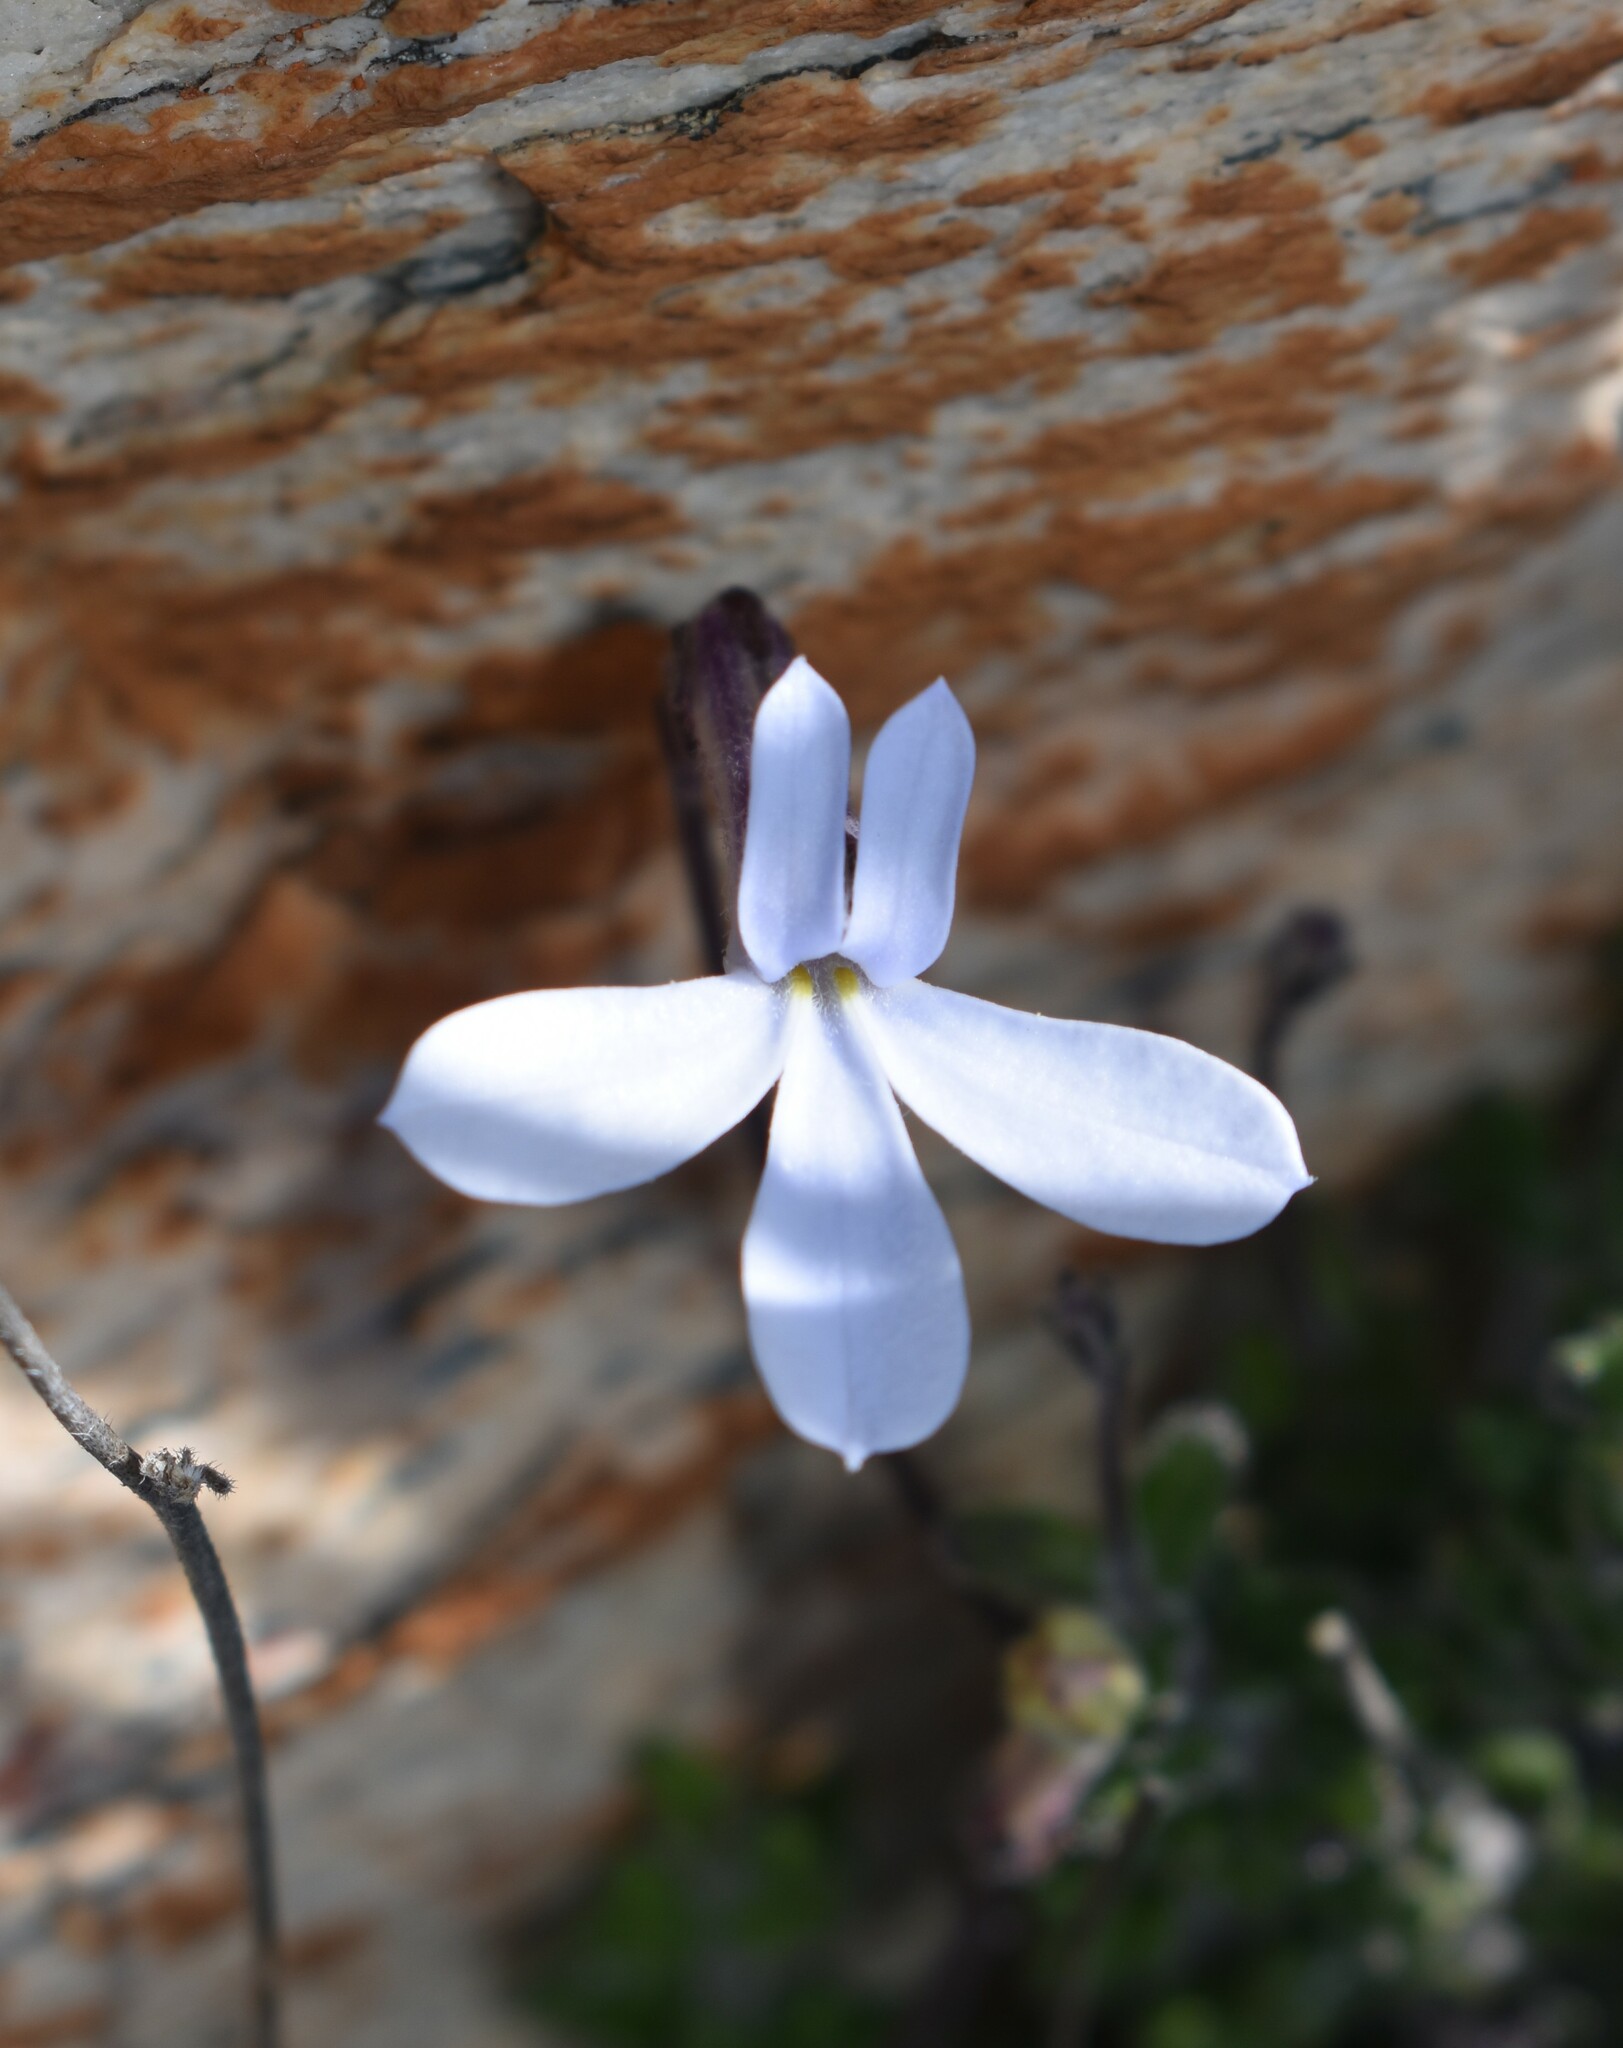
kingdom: Plantae
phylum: Tracheophyta
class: Magnoliopsida
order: Asterales
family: Campanulaceae
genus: Lobelia
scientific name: Lobelia dichroma
